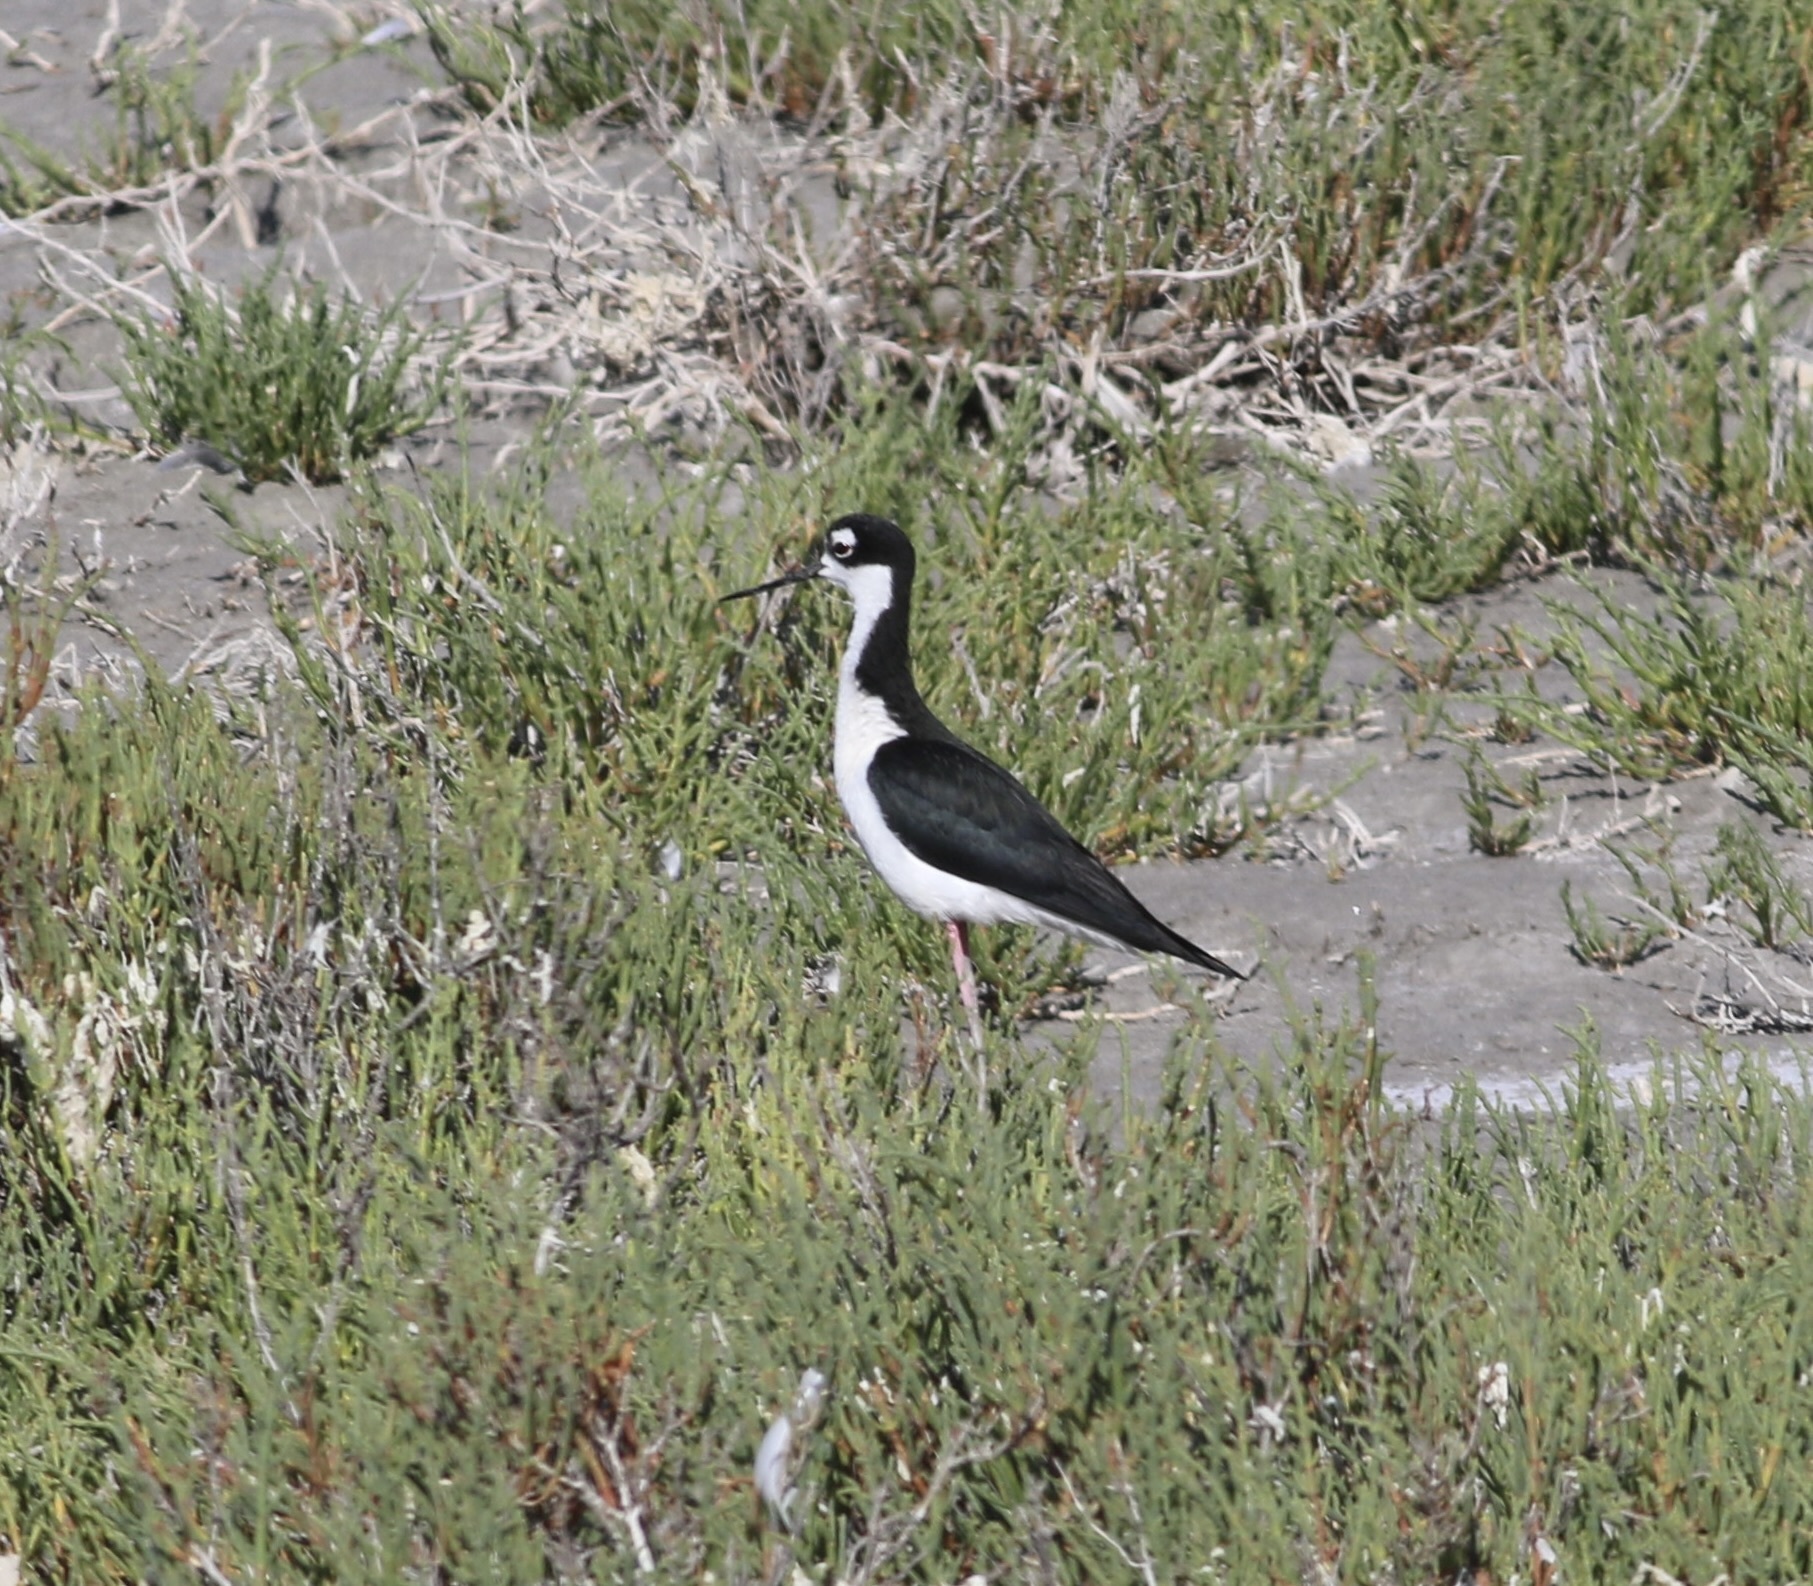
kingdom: Animalia
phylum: Chordata
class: Aves
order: Charadriiformes
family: Recurvirostridae
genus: Himantopus
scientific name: Himantopus mexicanus
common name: Black-necked stilt
